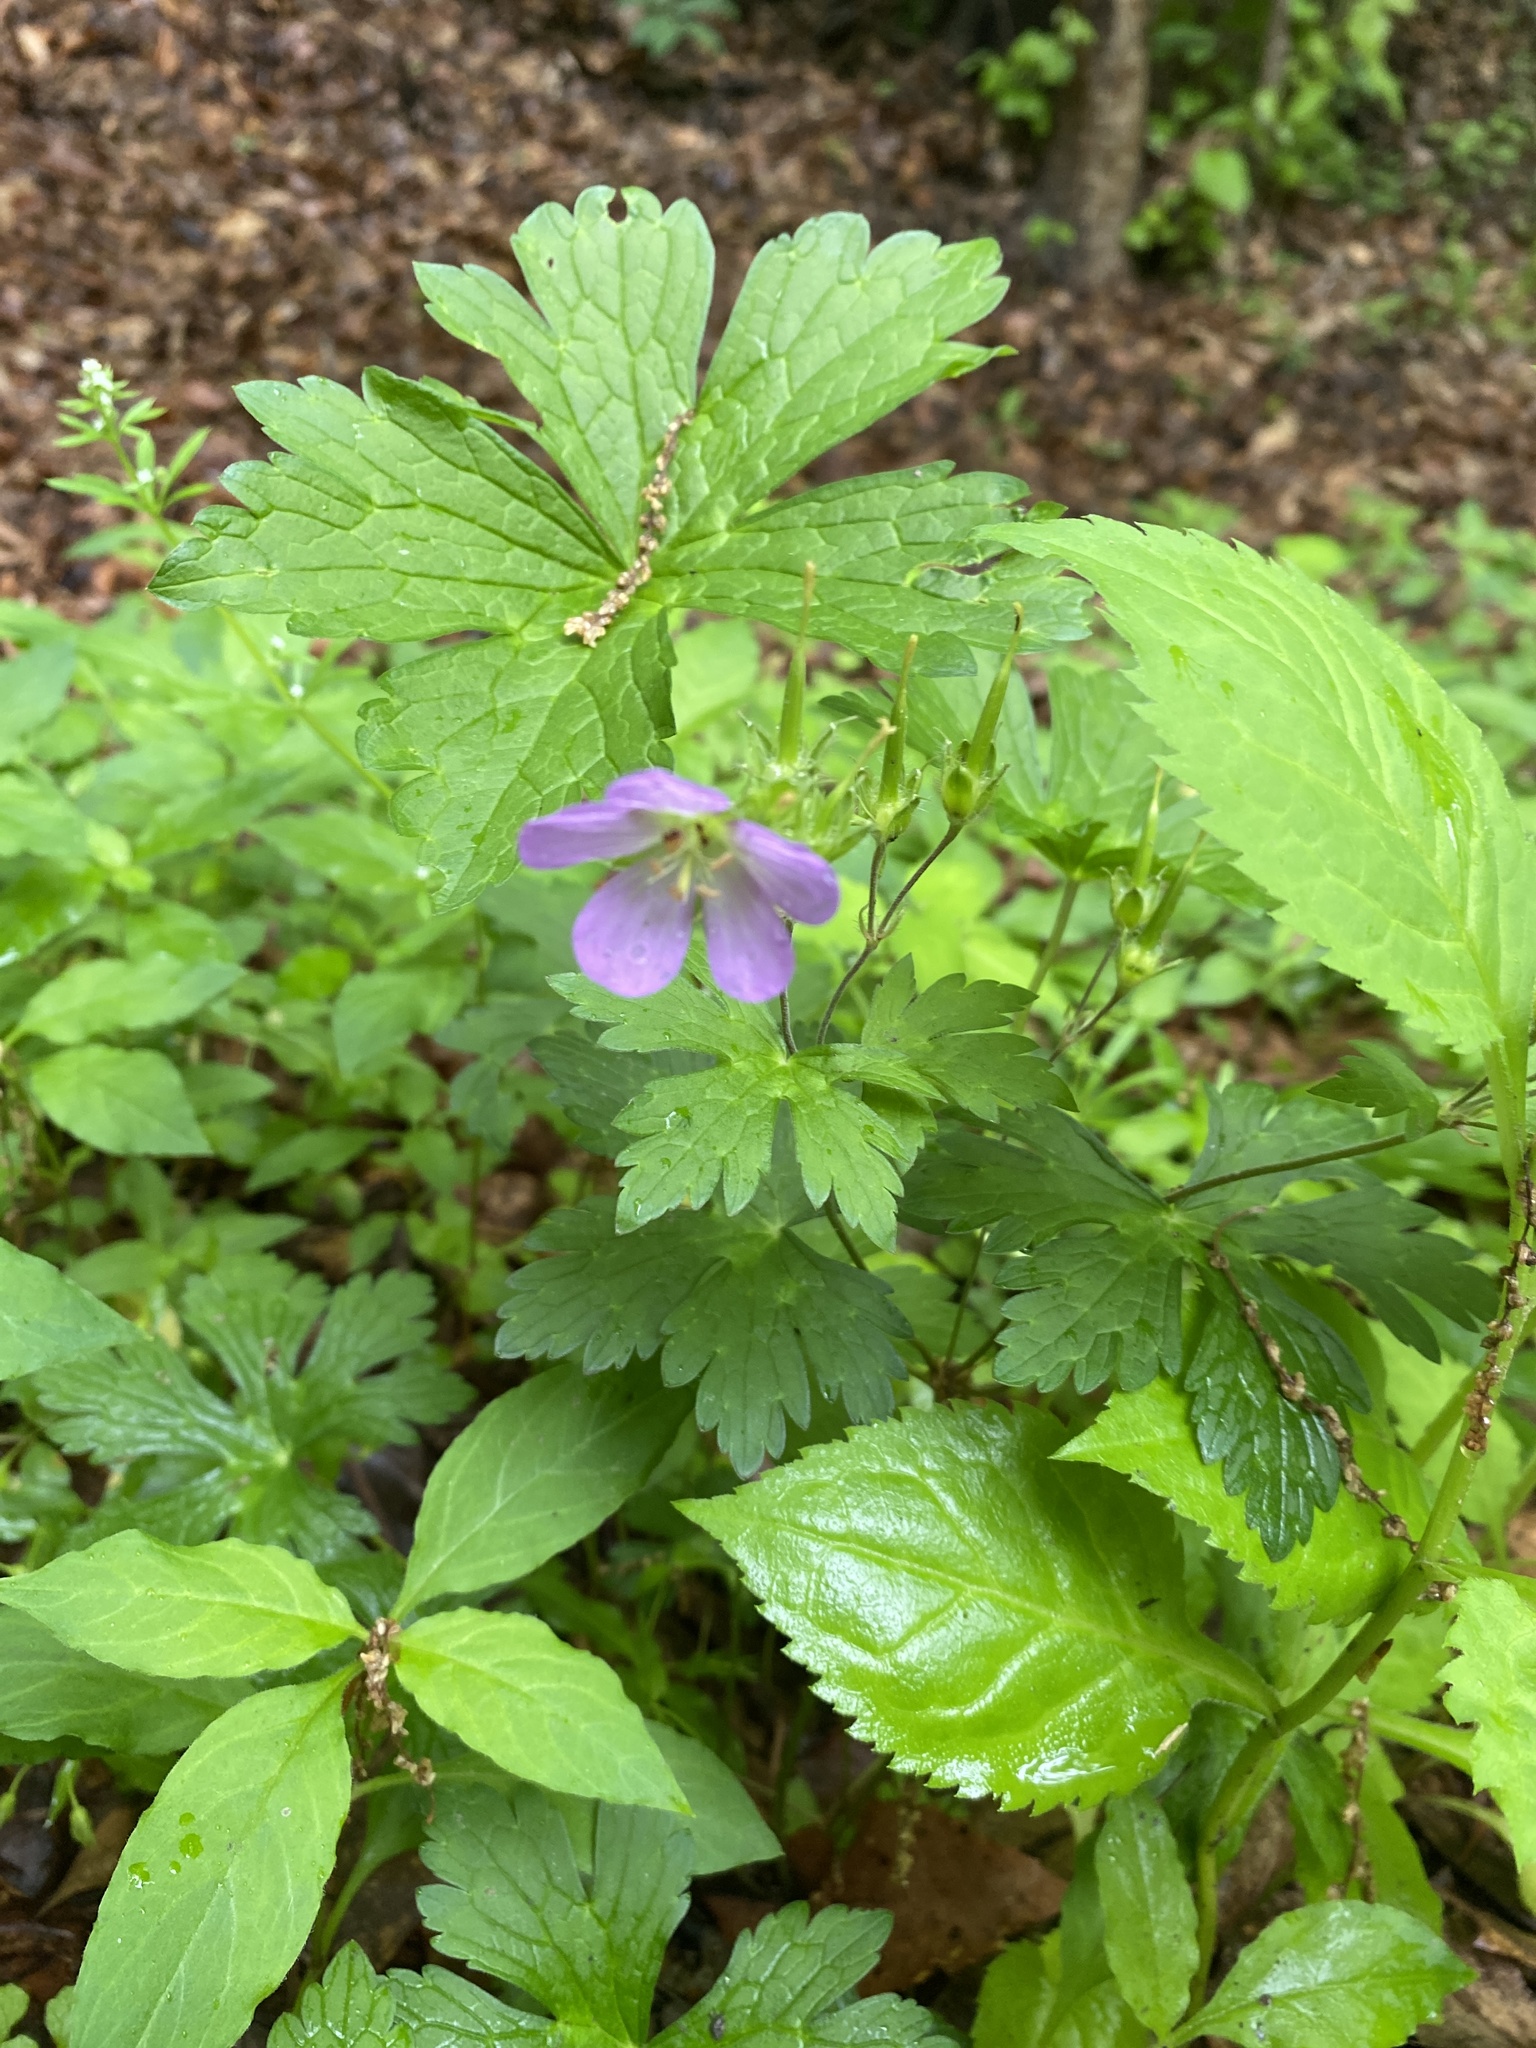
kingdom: Plantae
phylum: Tracheophyta
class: Magnoliopsida
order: Geraniales
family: Geraniaceae
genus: Geranium
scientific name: Geranium maculatum
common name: Spotted geranium
